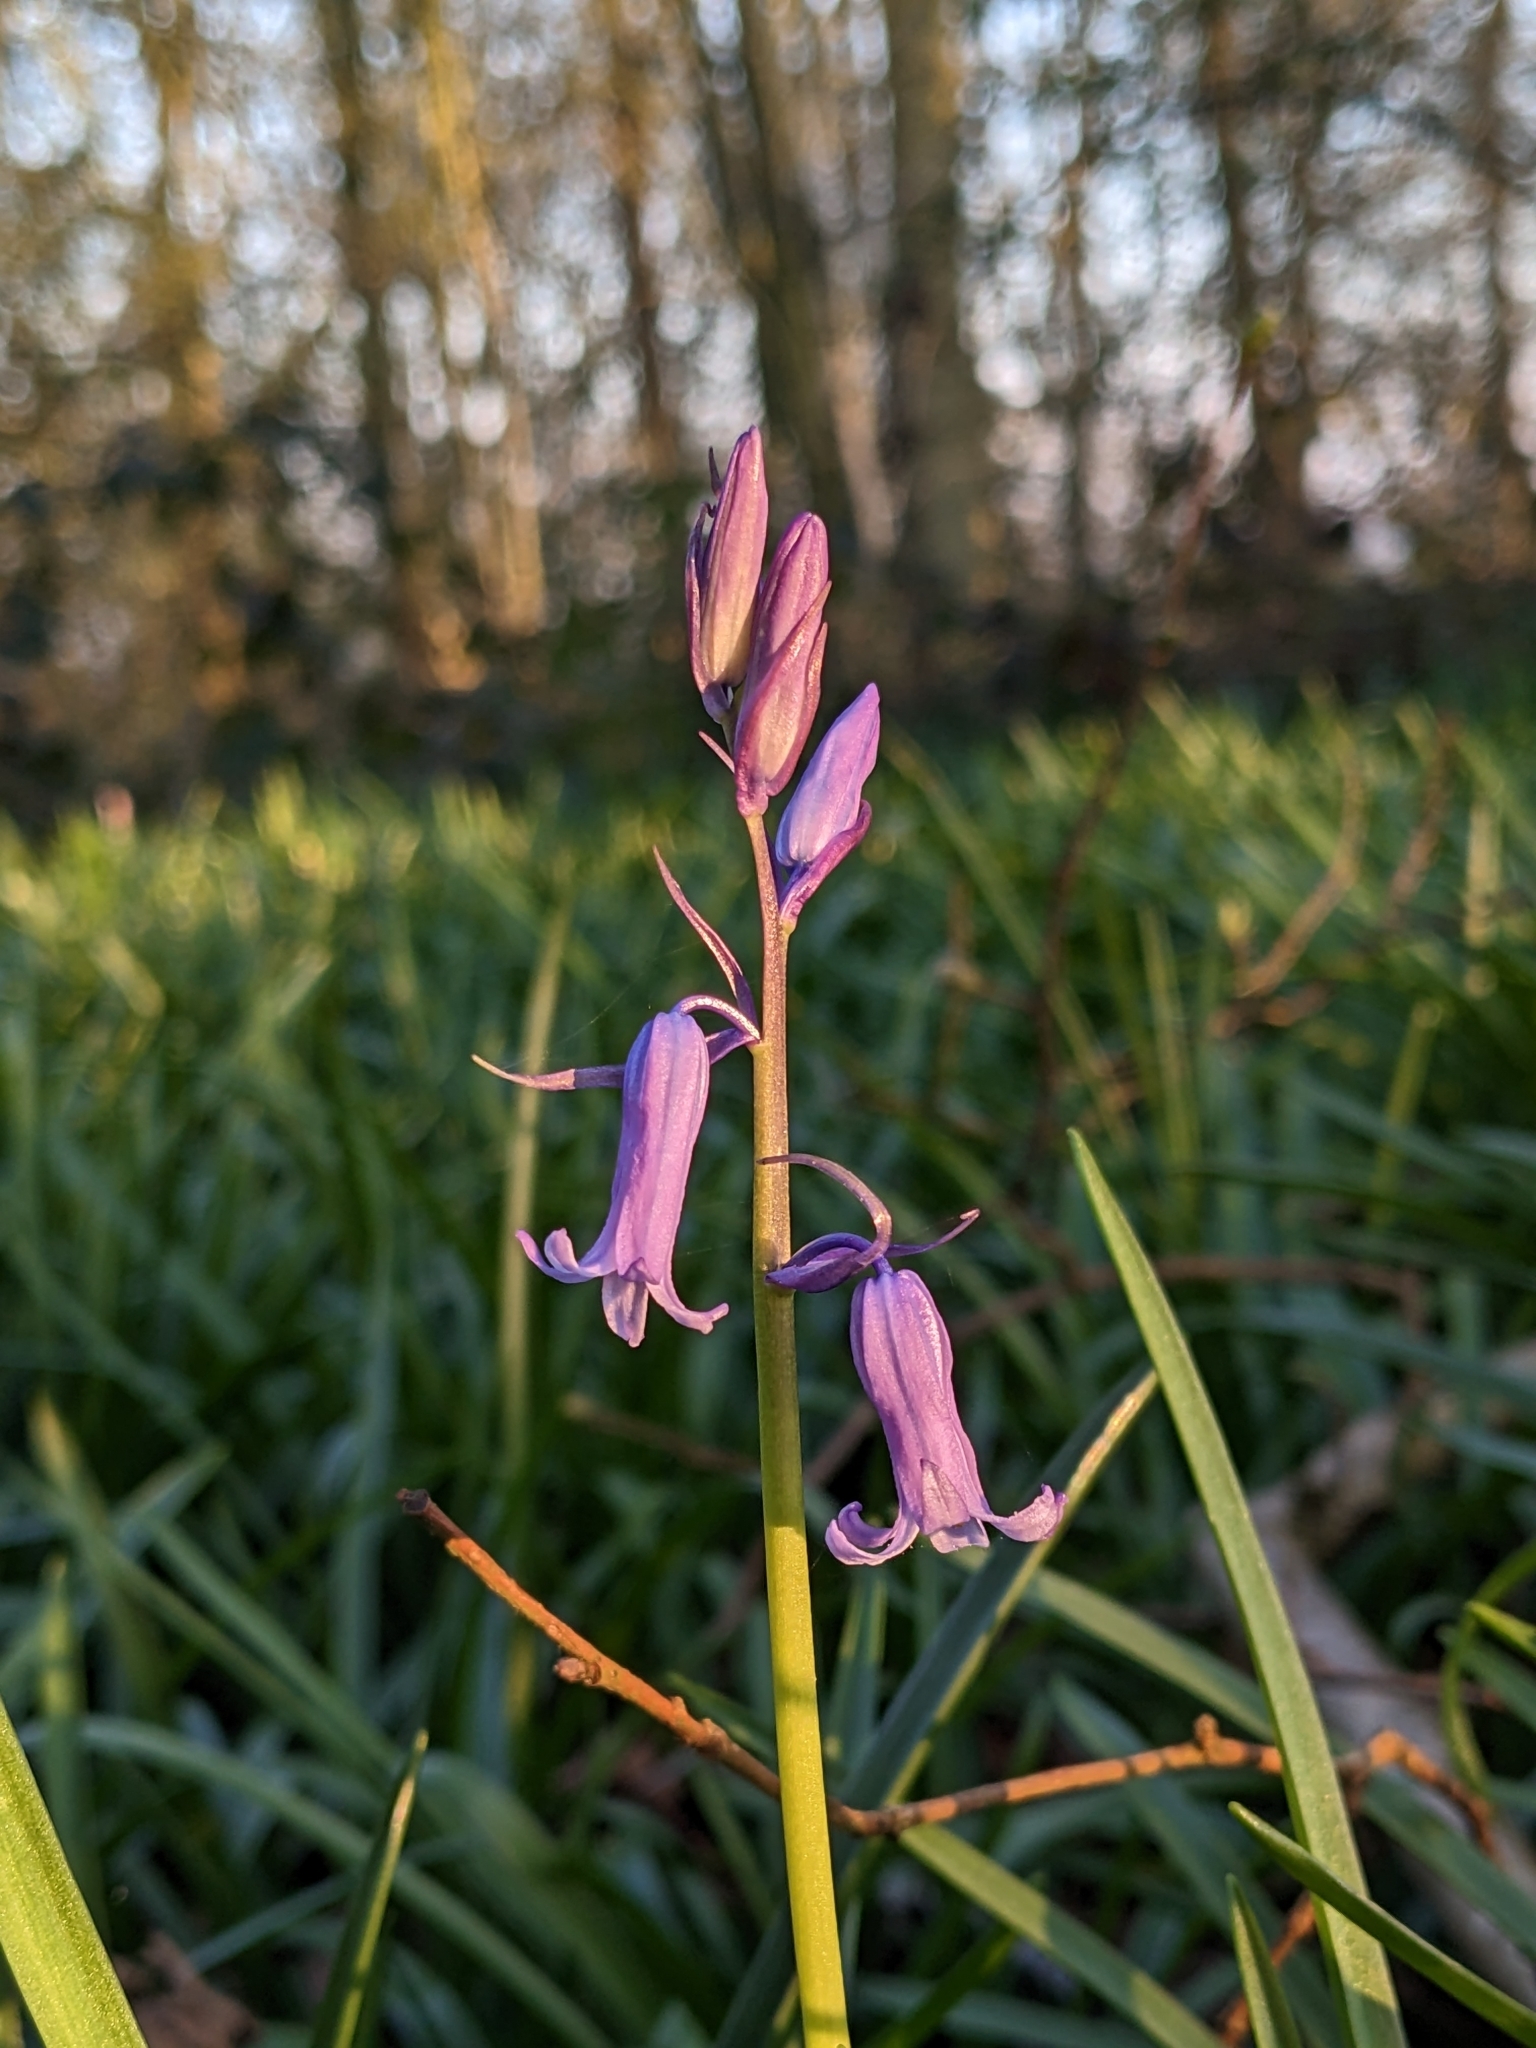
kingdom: Plantae
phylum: Tracheophyta
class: Liliopsida
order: Asparagales
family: Asparagaceae
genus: Hyacinthoides
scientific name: Hyacinthoides non-scripta
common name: Bluebell
